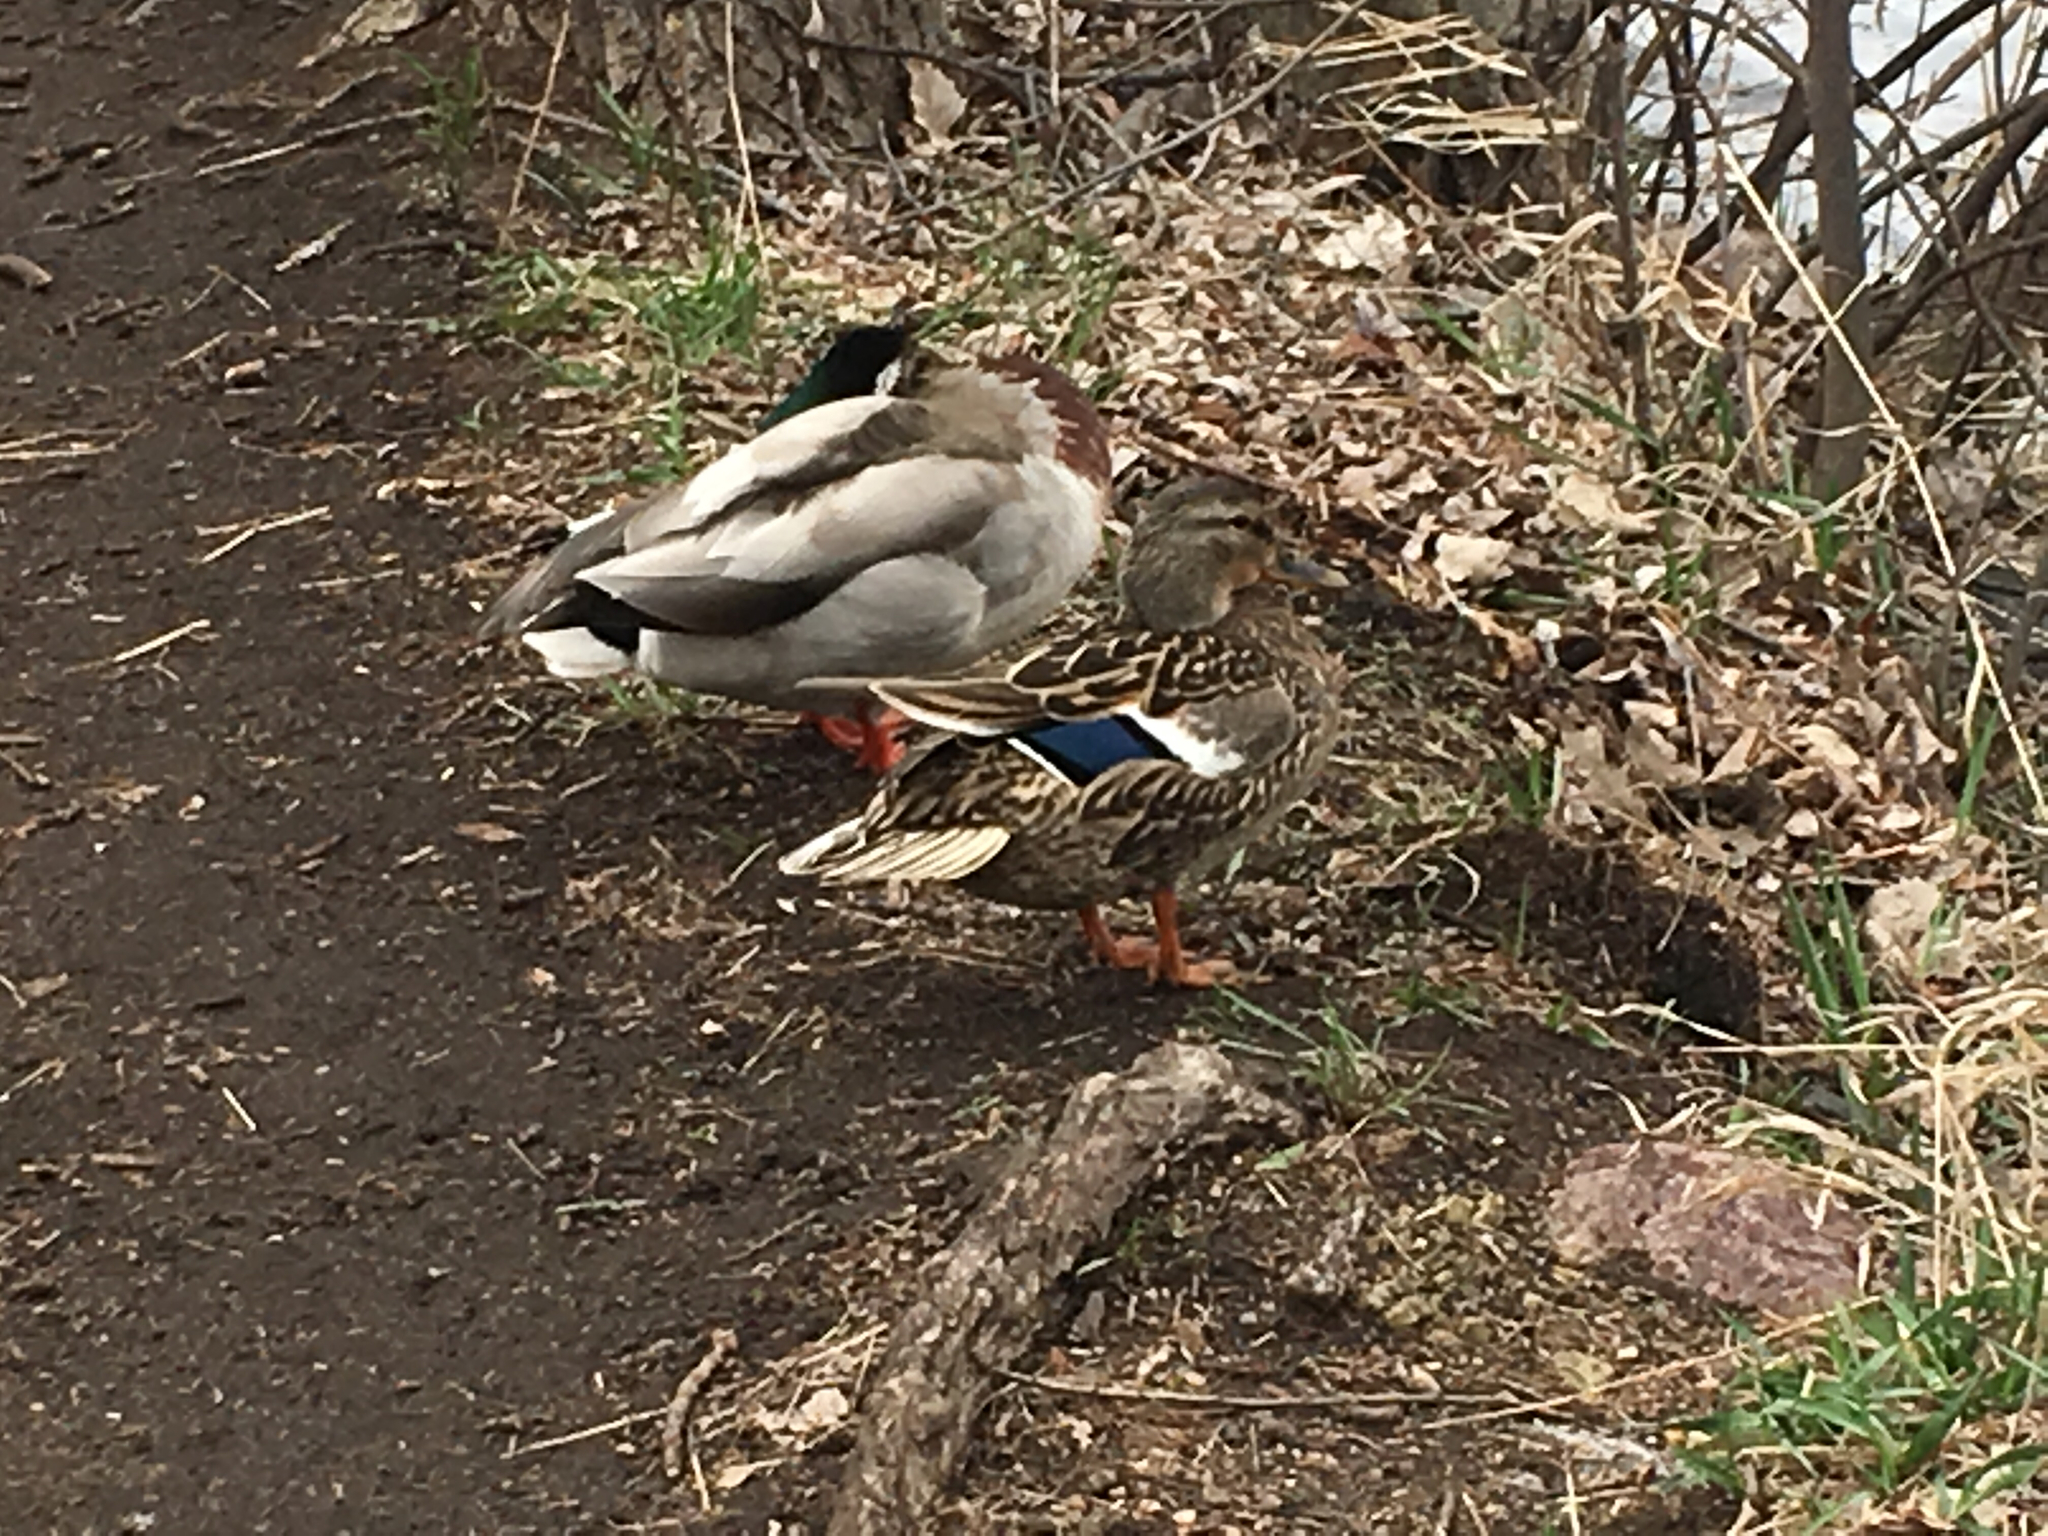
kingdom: Animalia
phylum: Chordata
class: Aves
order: Anseriformes
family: Anatidae
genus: Anas
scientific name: Anas platyrhynchos
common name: Mallard
